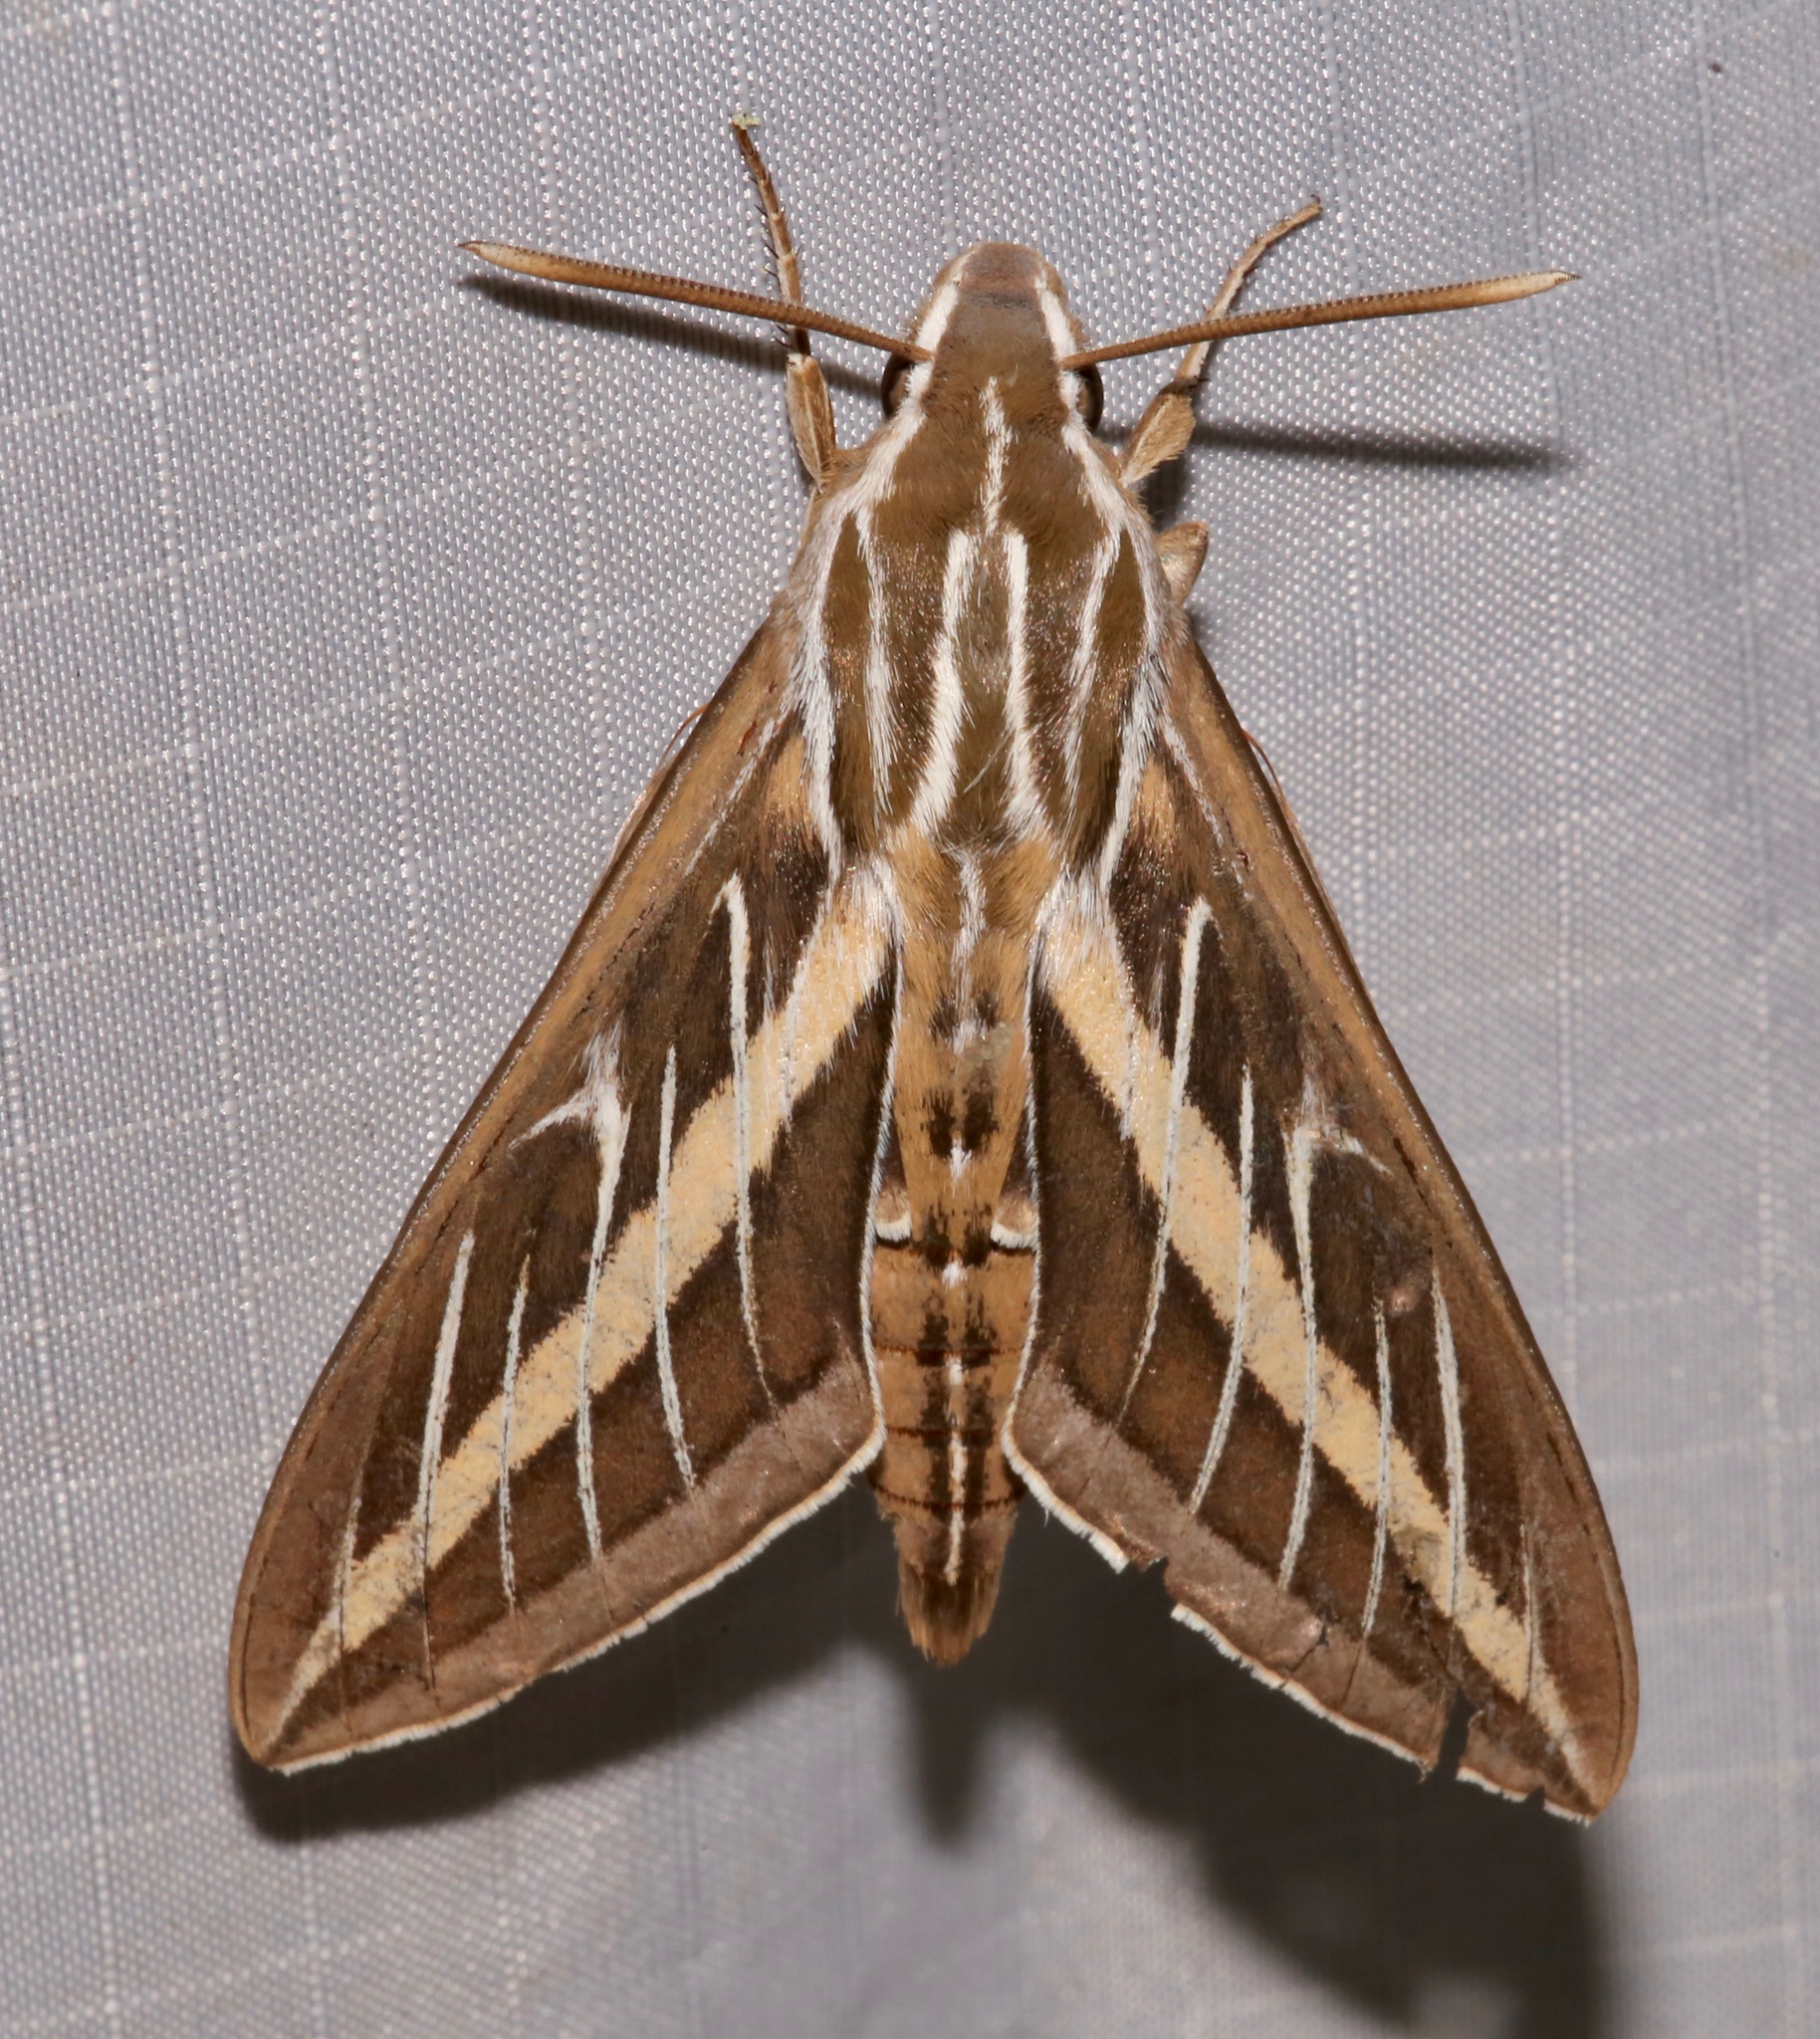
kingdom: Animalia
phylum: Arthropoda
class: Insecta
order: Lepidoptera
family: Sphingidae
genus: Hyles
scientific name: Hyles lineata
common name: White-lined sphinx
